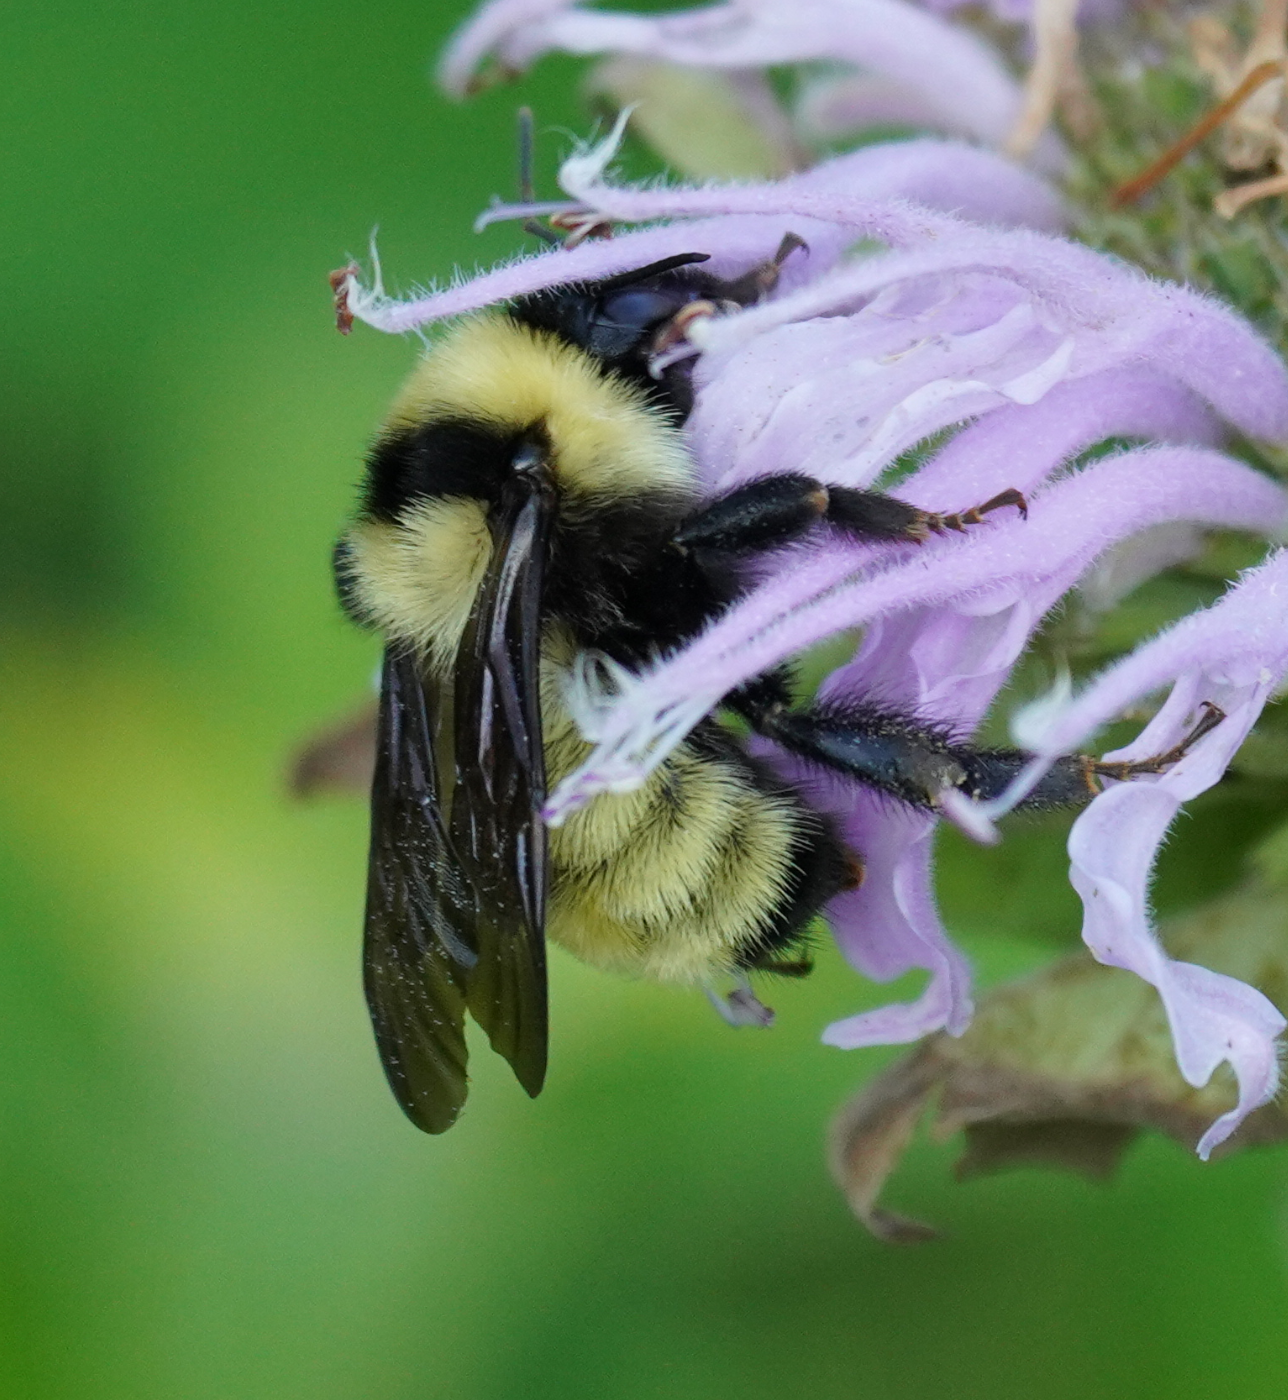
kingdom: Animalia
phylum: Arthropoda
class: Insecta
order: Hymenoptera
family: Apidae
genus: Bombus
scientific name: Bombus fervidus
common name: Yellow bumble bee
